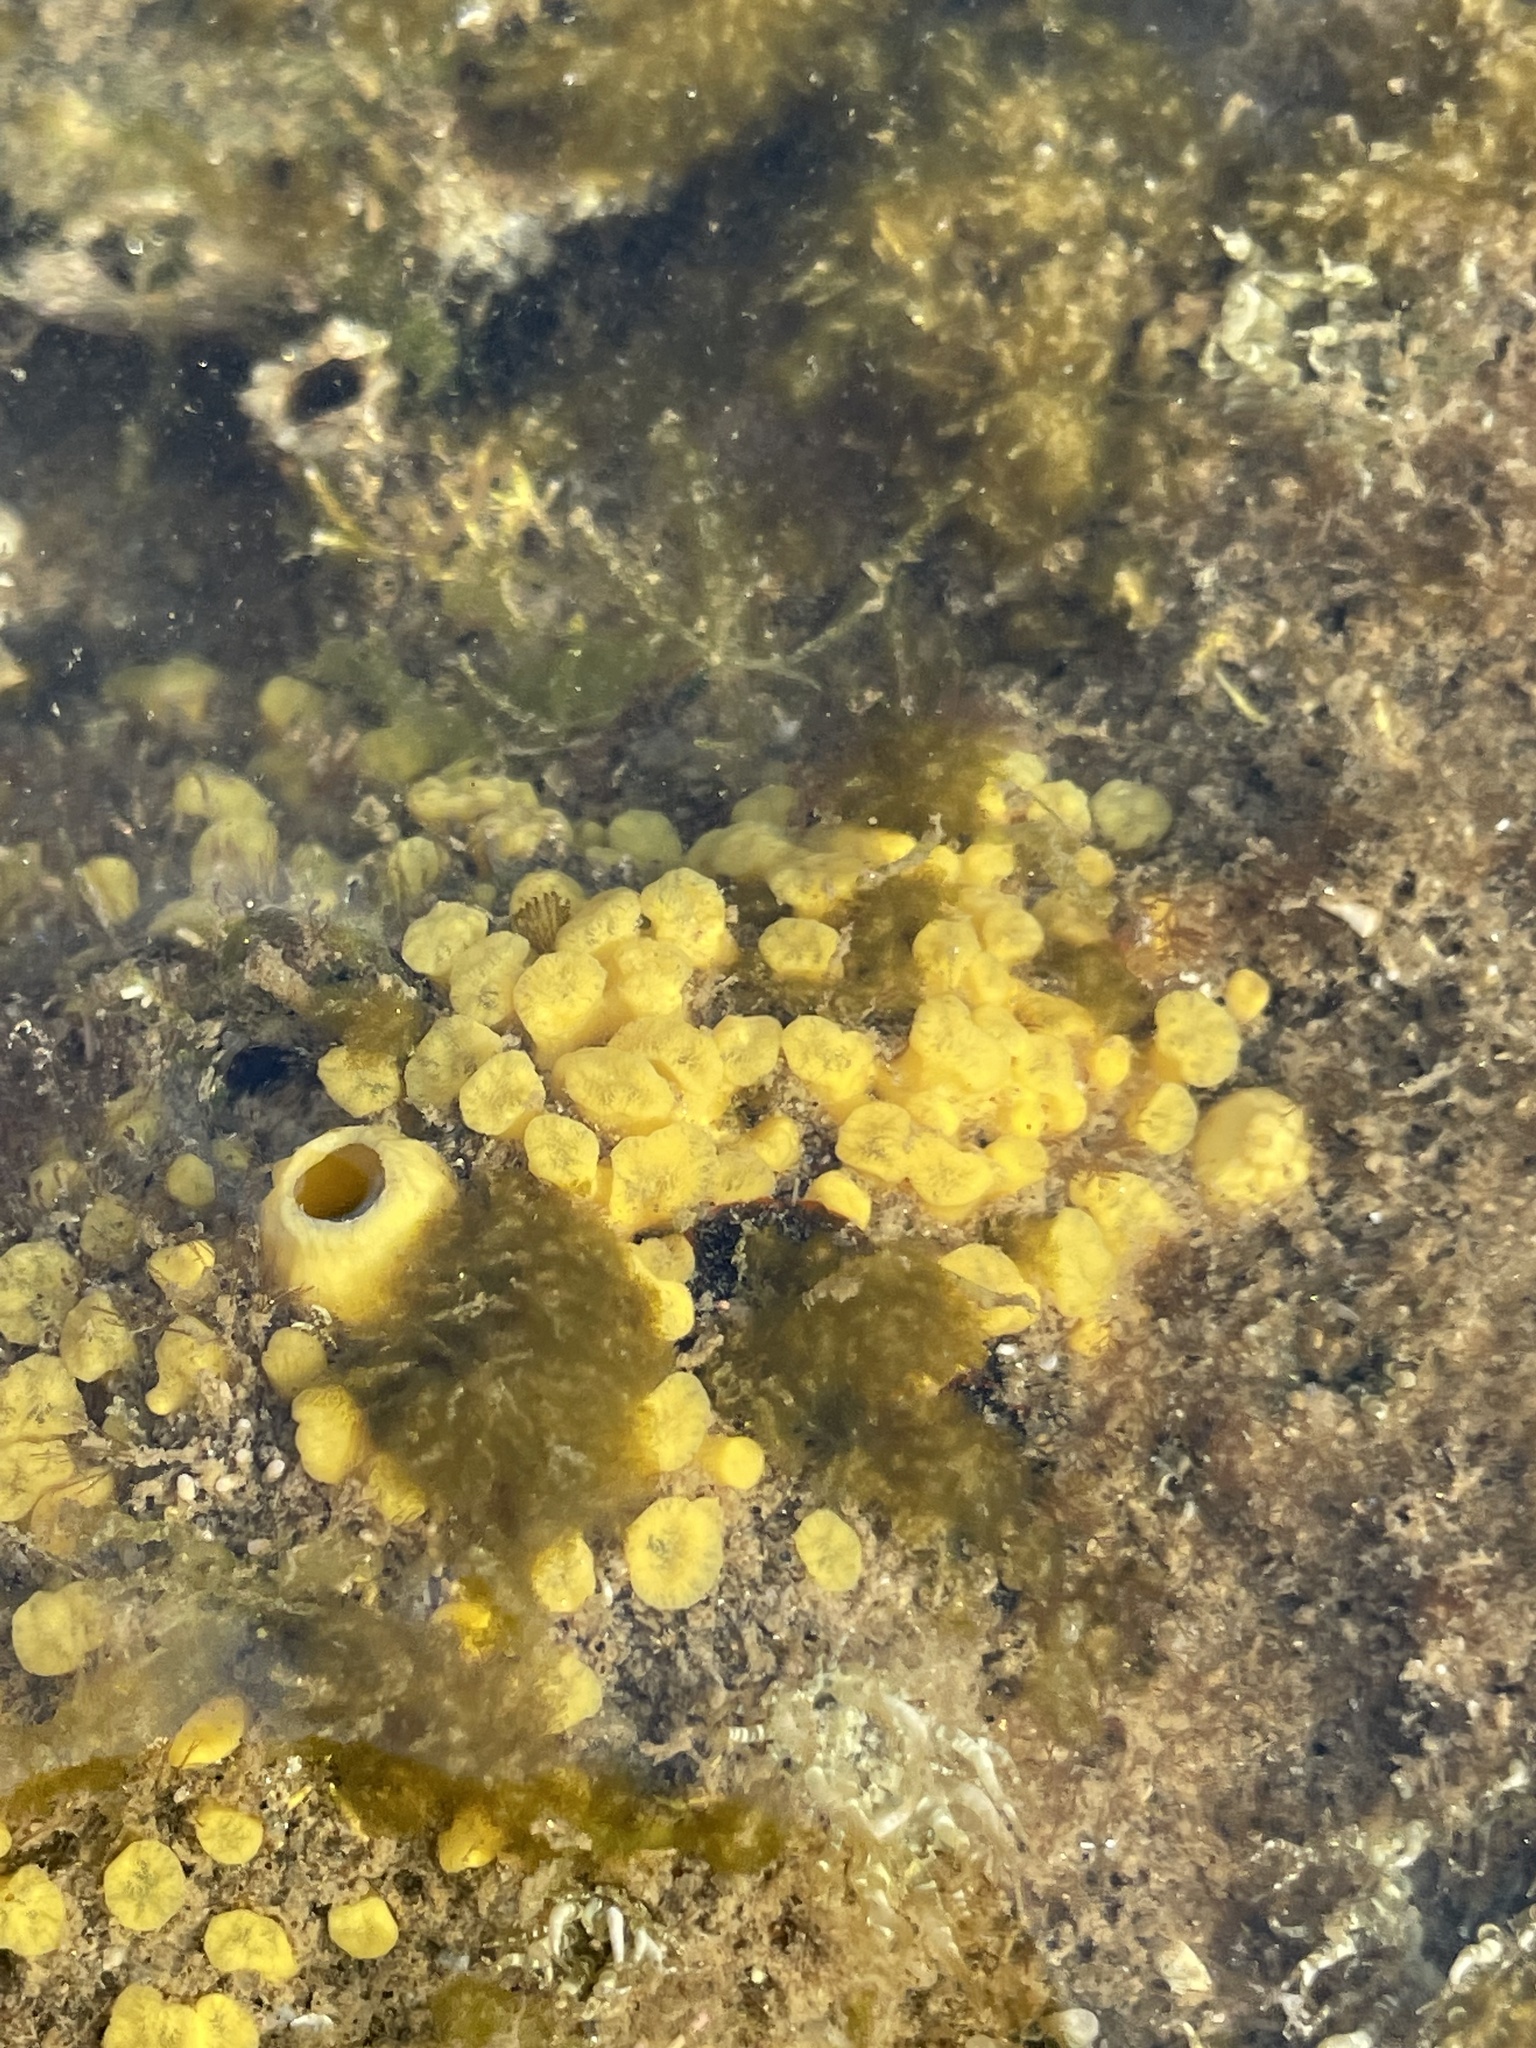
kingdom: Animalia
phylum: Porifera
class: Demospongiae
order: Clionaida
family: Clionaidae
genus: Cliona
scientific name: Cliona californiana
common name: California boring horny sponge
